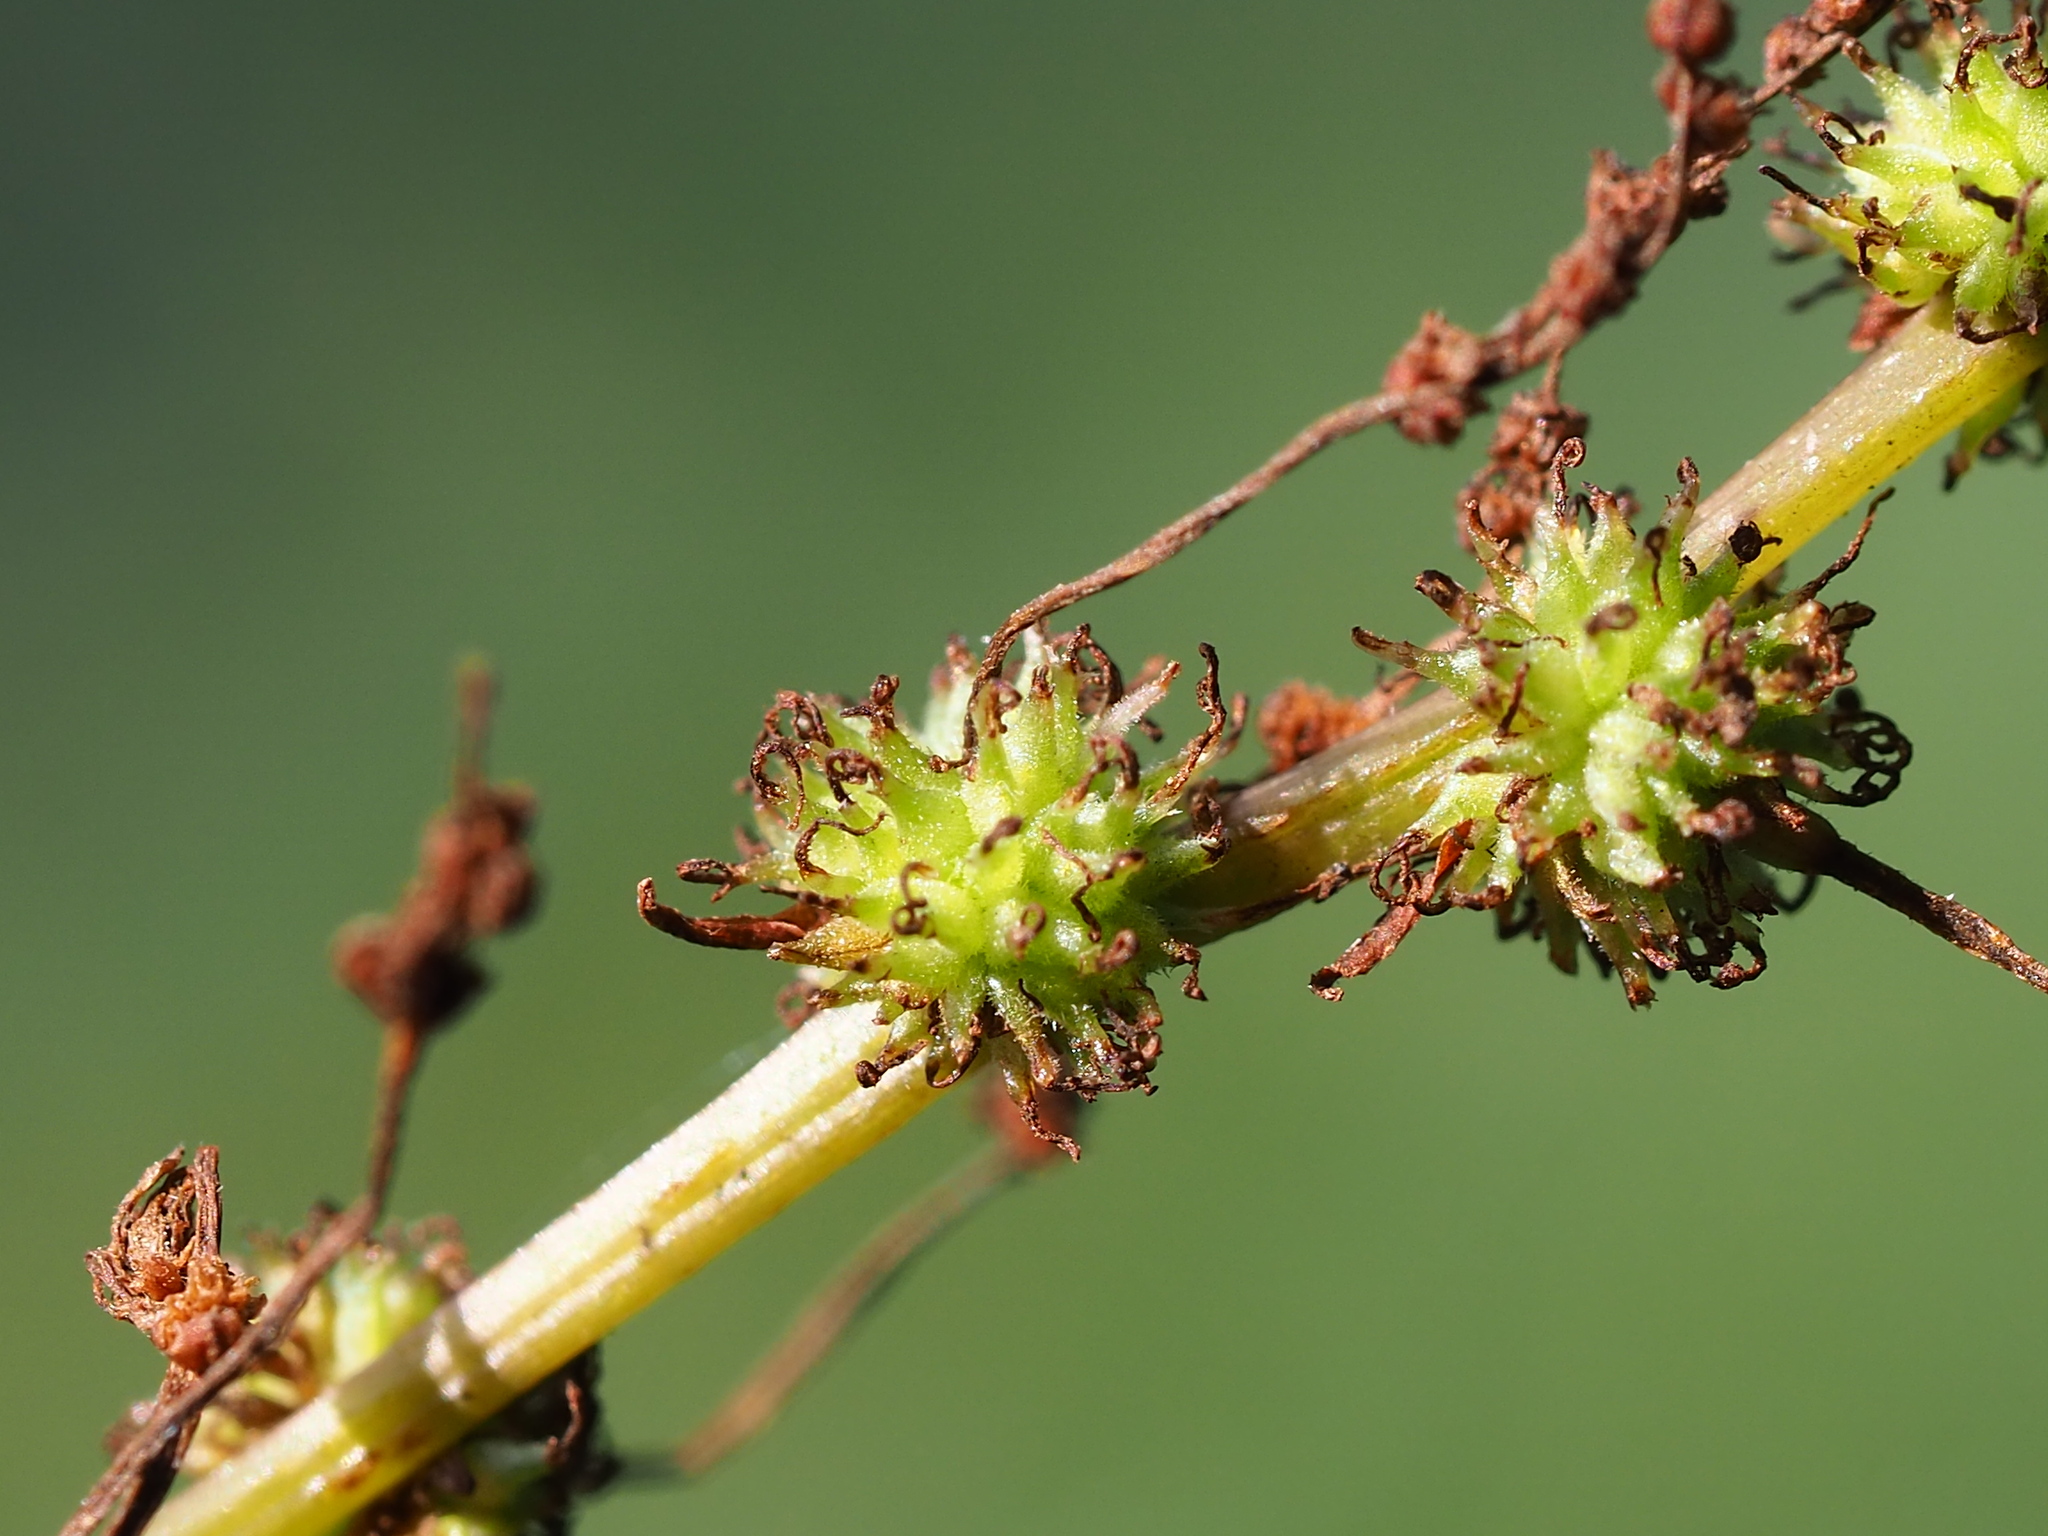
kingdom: Plantae
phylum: Tracheophyta
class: Magnoliopsida
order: Rosales
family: Urticaceae
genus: Boehmeria
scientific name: Boehmeria zollingeriana
